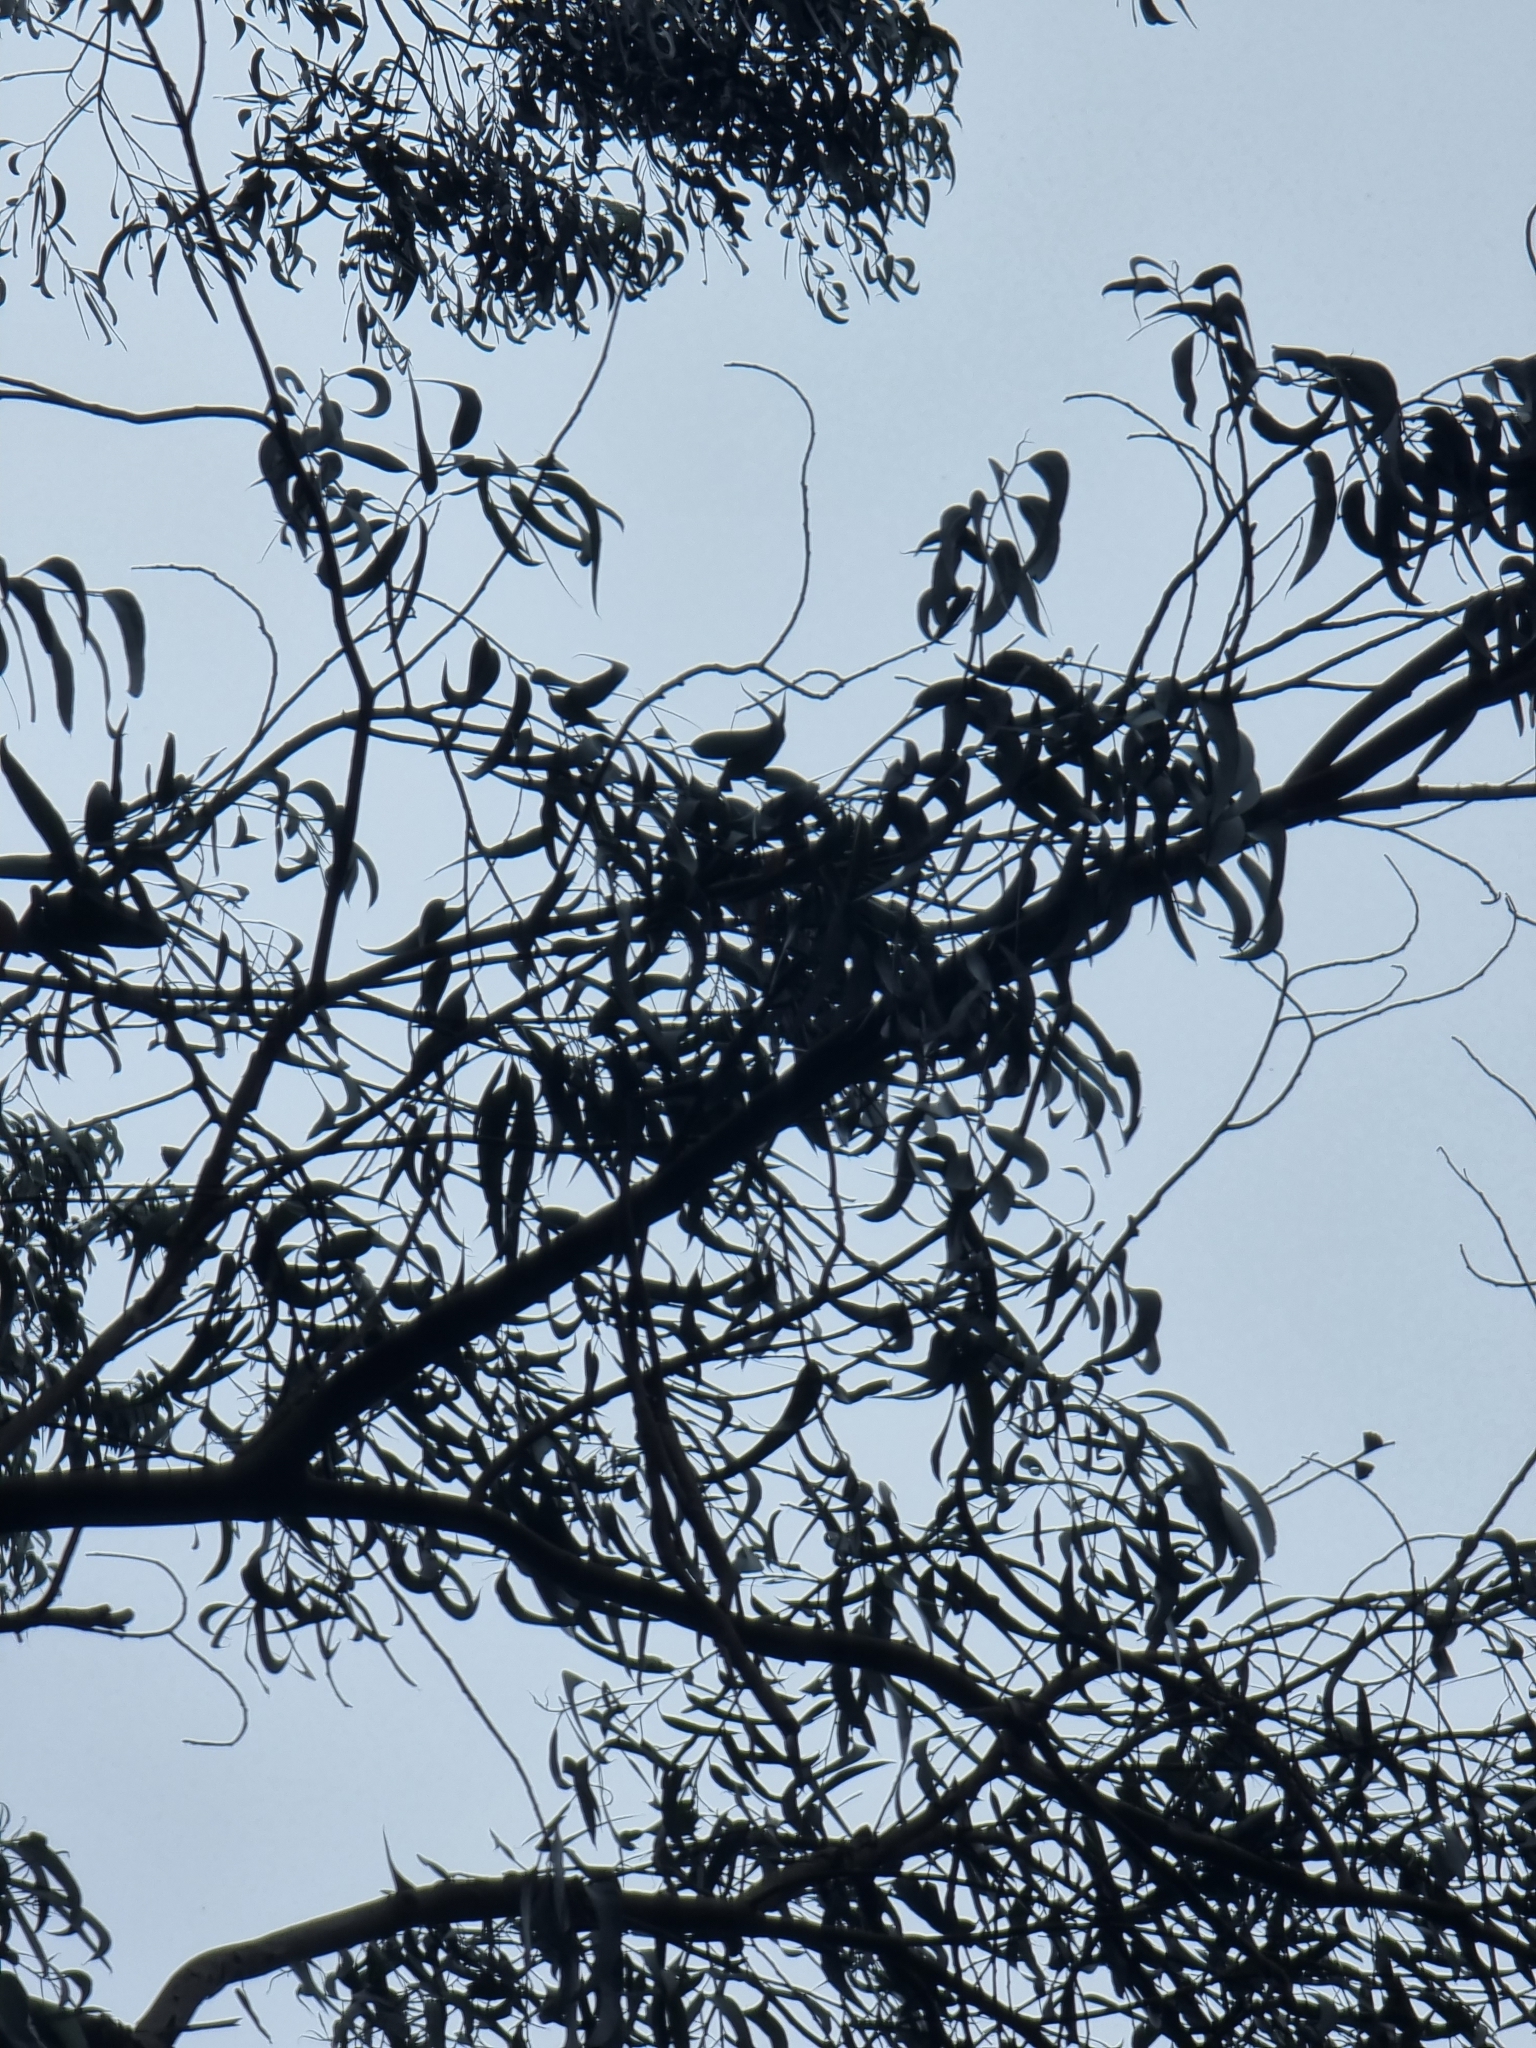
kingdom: Plantae
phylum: Tracheophyta
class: Magnoliopsida
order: Myrtales
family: Myrtaceae
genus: Eucalyptus
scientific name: Eucalyptus globulus
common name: Southern blue-gum
